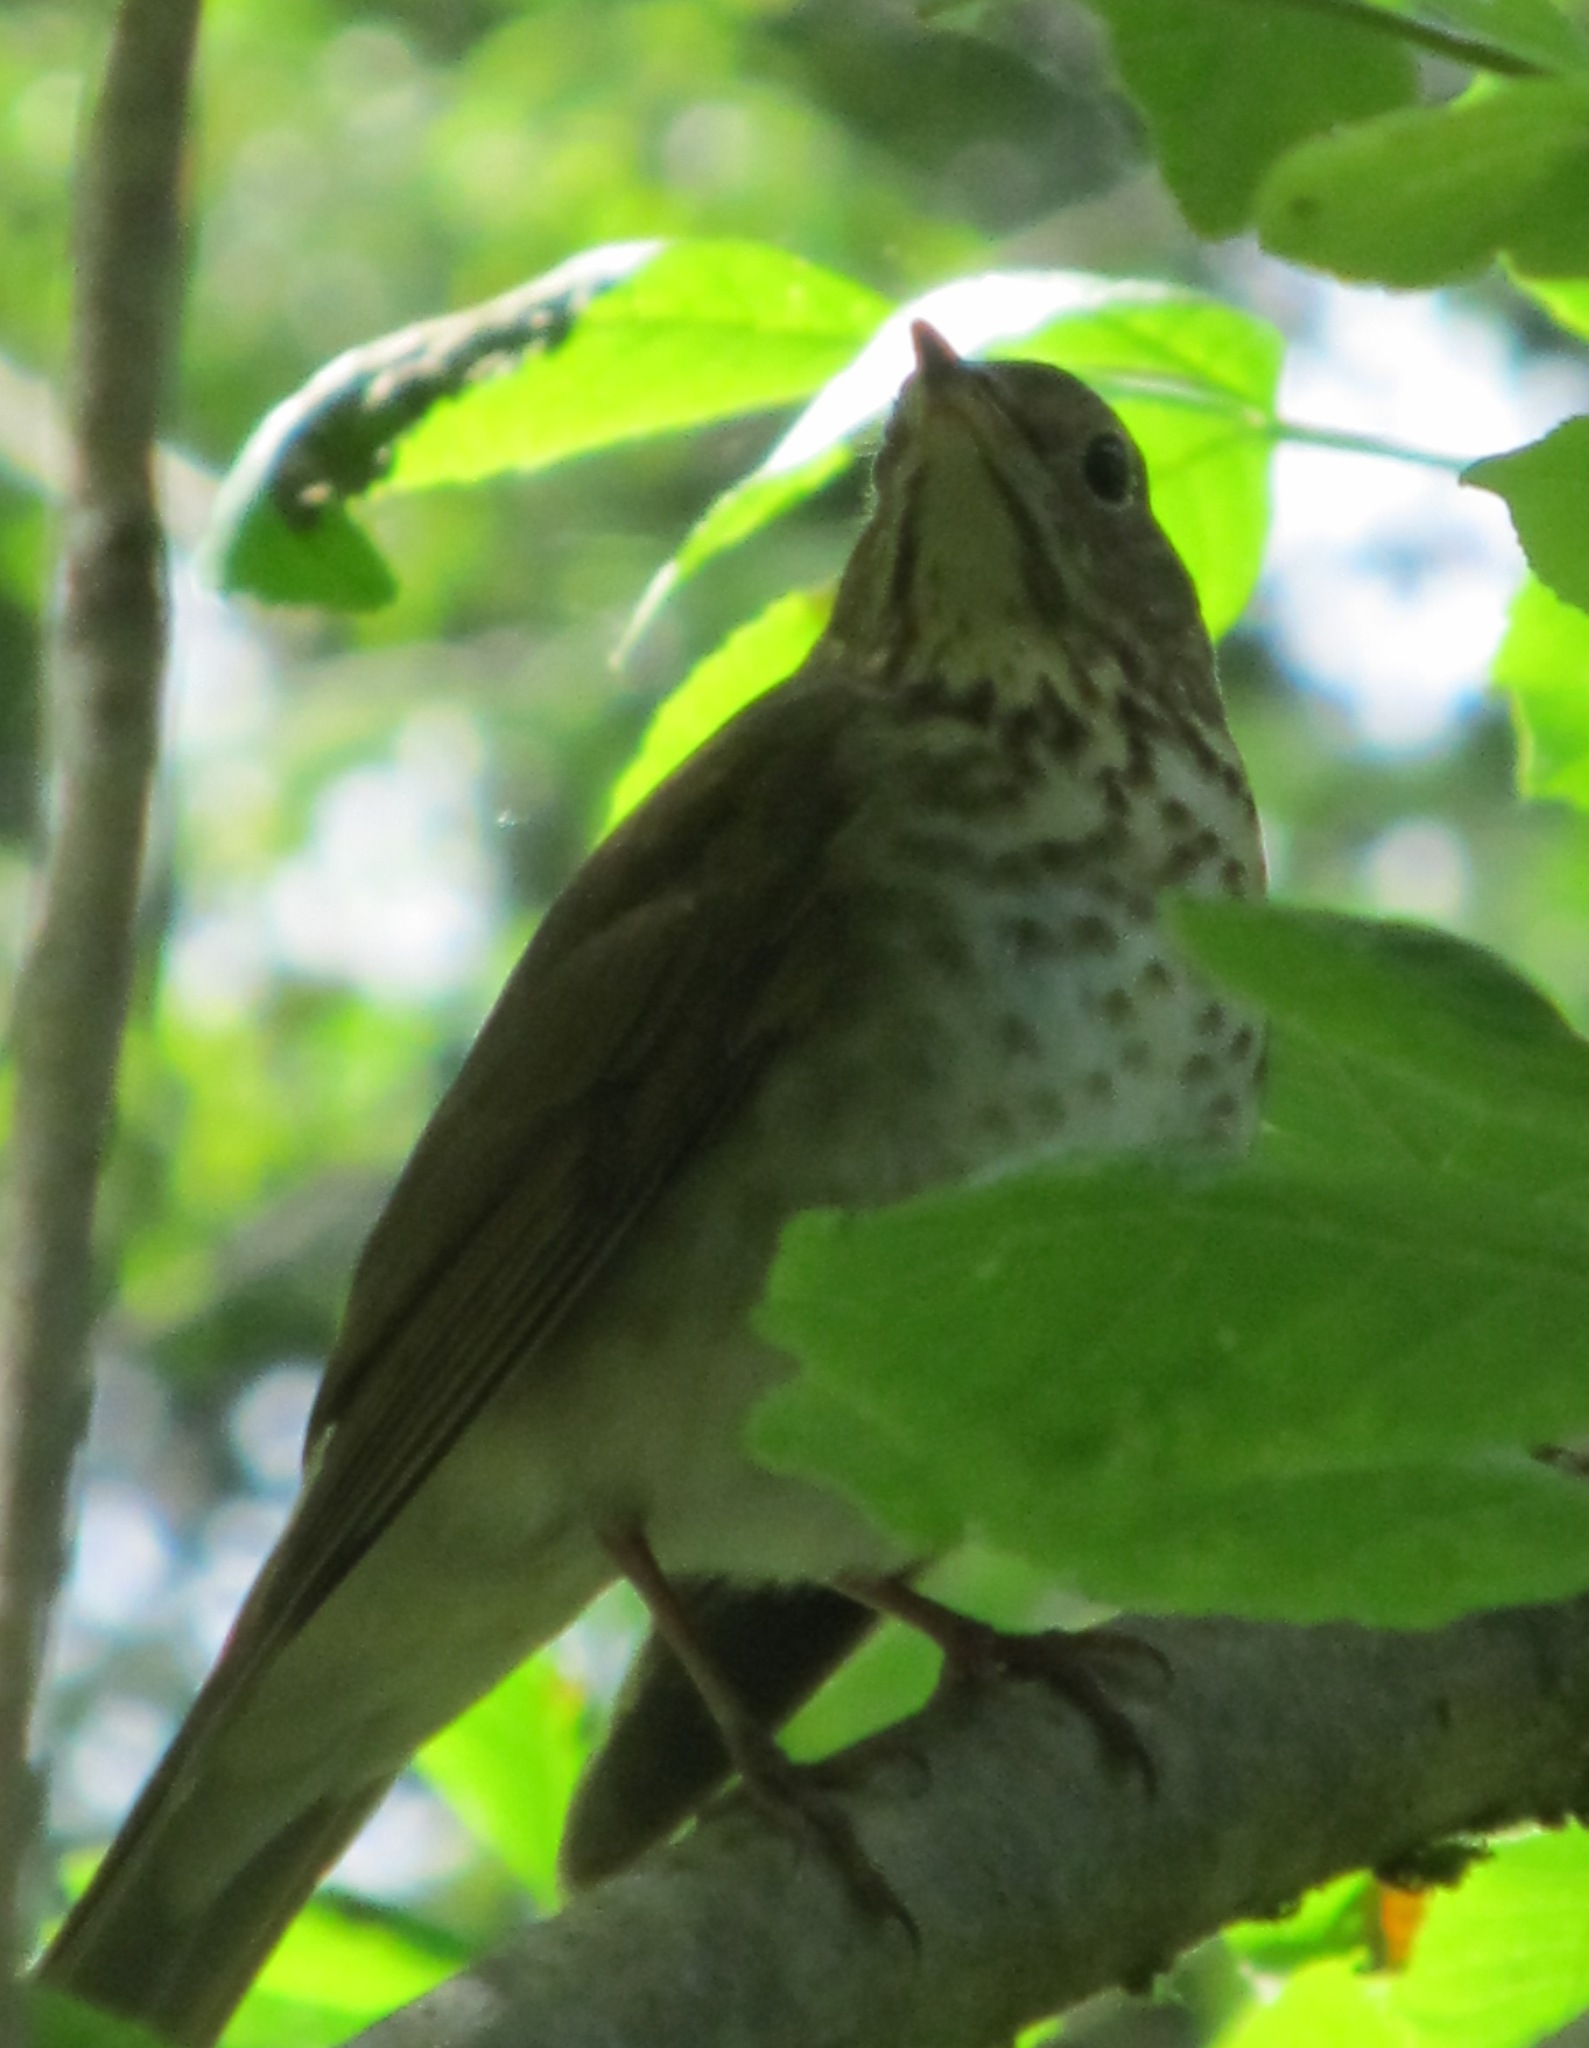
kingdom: Animalia
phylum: Chordata
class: Aves
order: Passeriformes
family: Turdidae
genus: Catharus
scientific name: Catharus ustulatus
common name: Swainson's thrush
